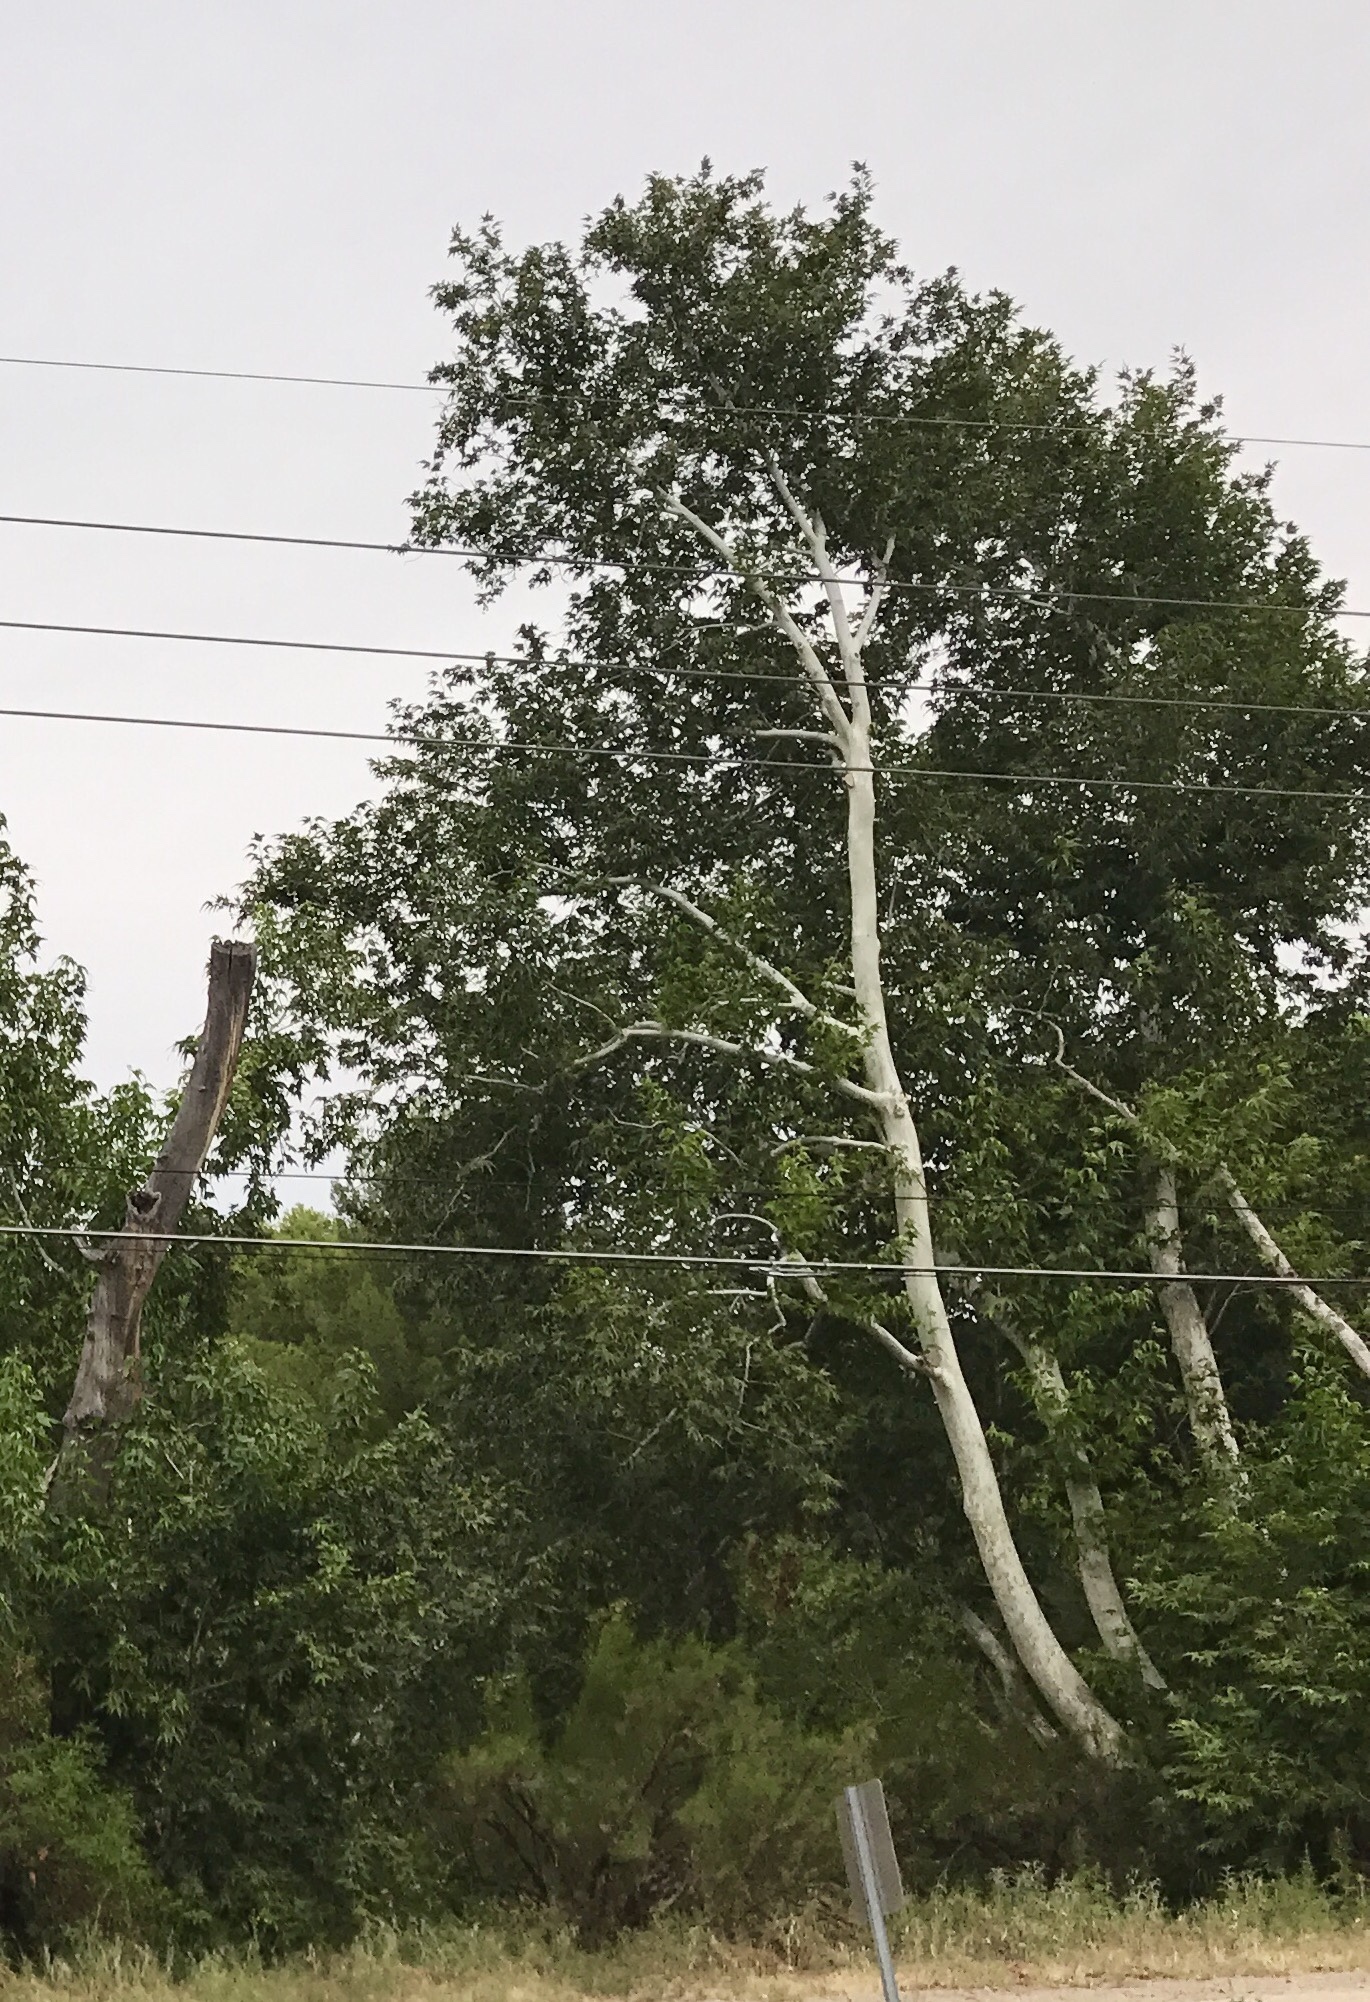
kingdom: Plantae
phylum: Tracheophyta
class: Magnoliopsida
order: Proteales
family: Platanaceae
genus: Platanus
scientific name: Platanus wrightii
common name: Arizona sycamore
